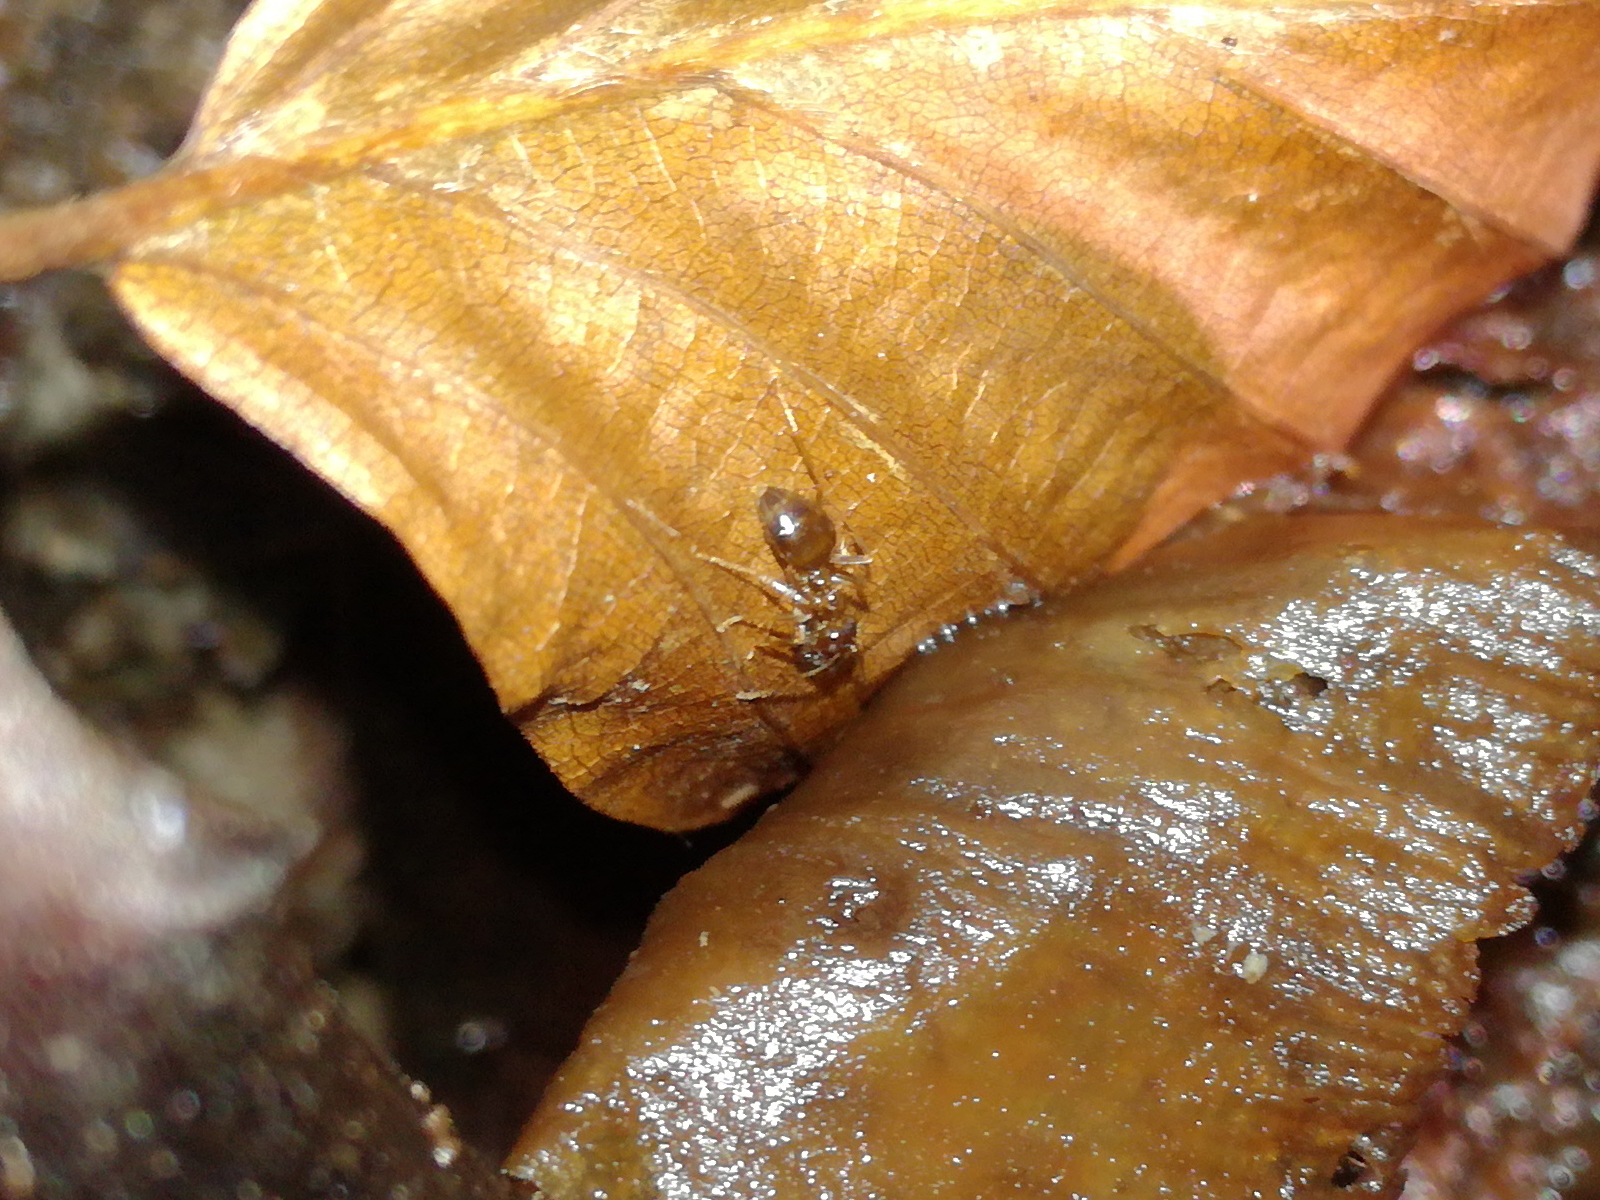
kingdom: Animalia
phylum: Arthropoda
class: Insecta
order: Hymenoptera
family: Formicidae
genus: Prenolepis
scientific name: Prenolepis nitens
